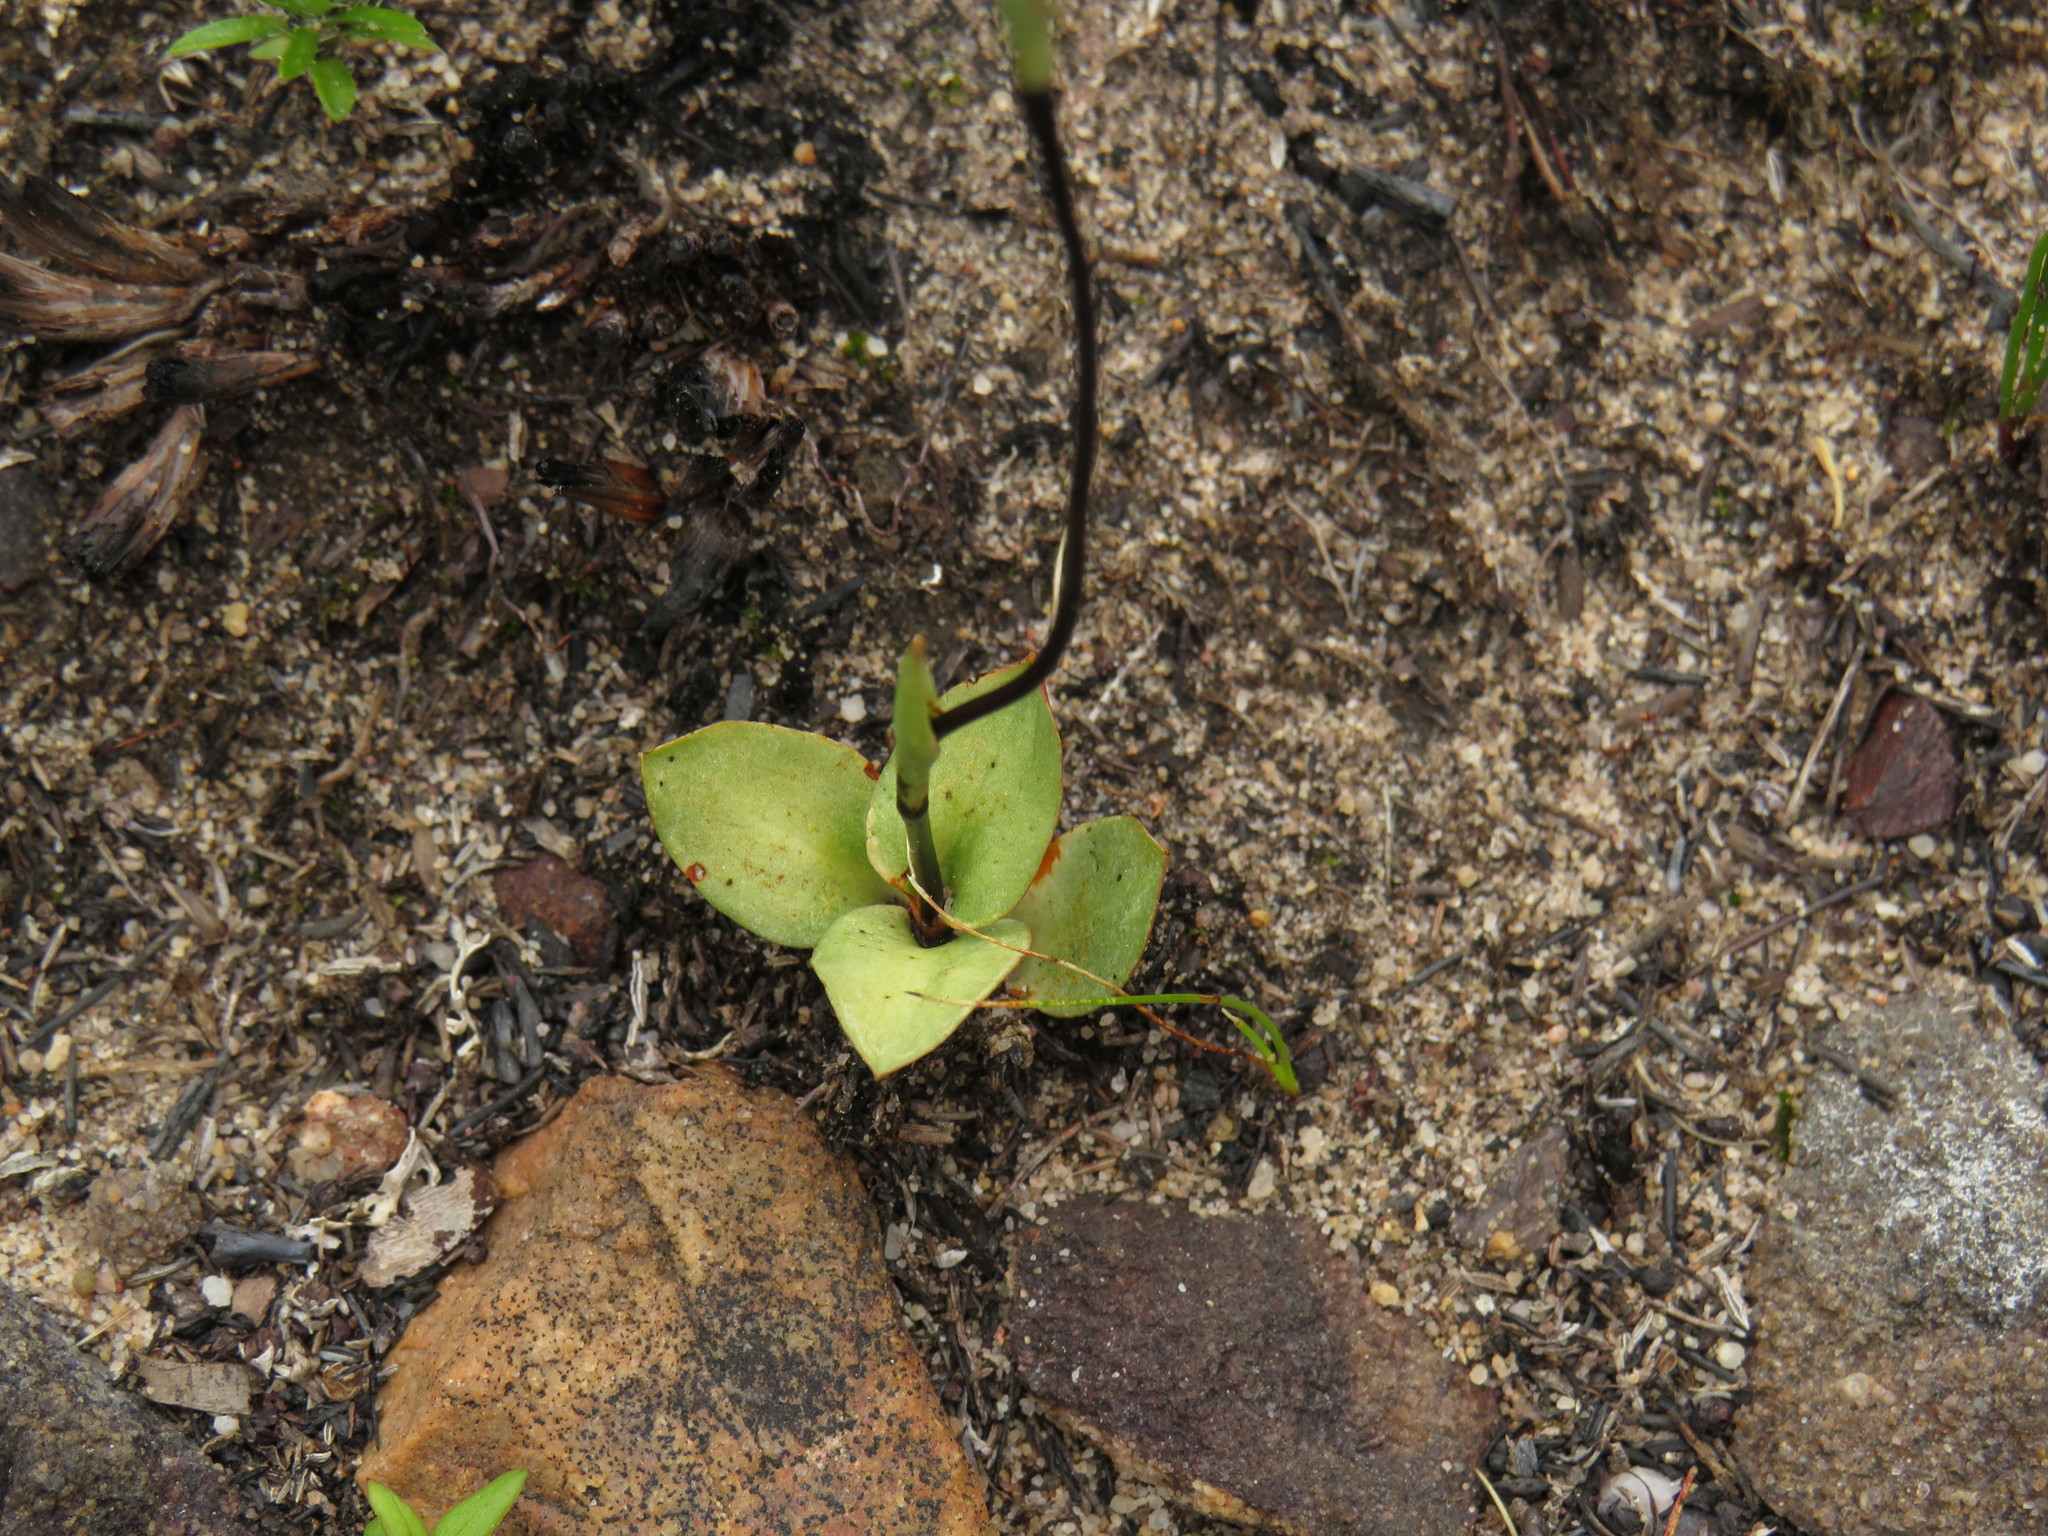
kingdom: Plantae
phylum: Tracheophyta
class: Liliopsida
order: Asparagales
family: Orchidaceae
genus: Disa
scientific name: Disa obliqua
